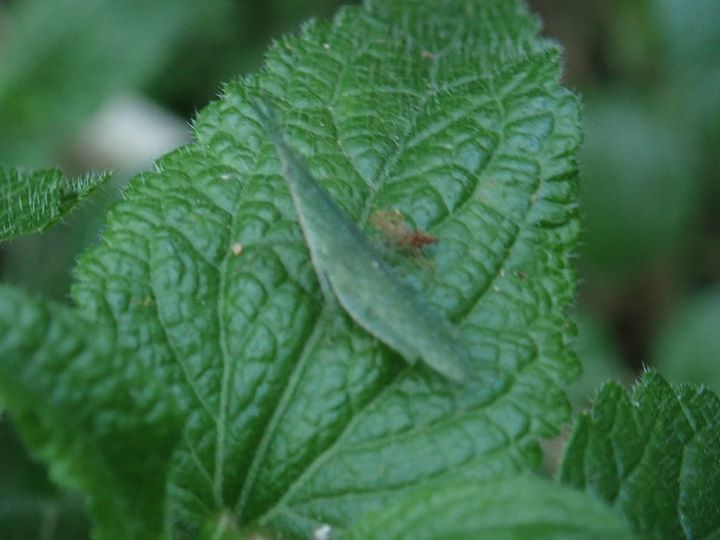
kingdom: Animalia
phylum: Arthropoda
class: Insecta
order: Orthoptera
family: Pyrgomorphidae
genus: Atractomorpha
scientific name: Atractomorpha sinensis
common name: Pinkwinged grasshopper
